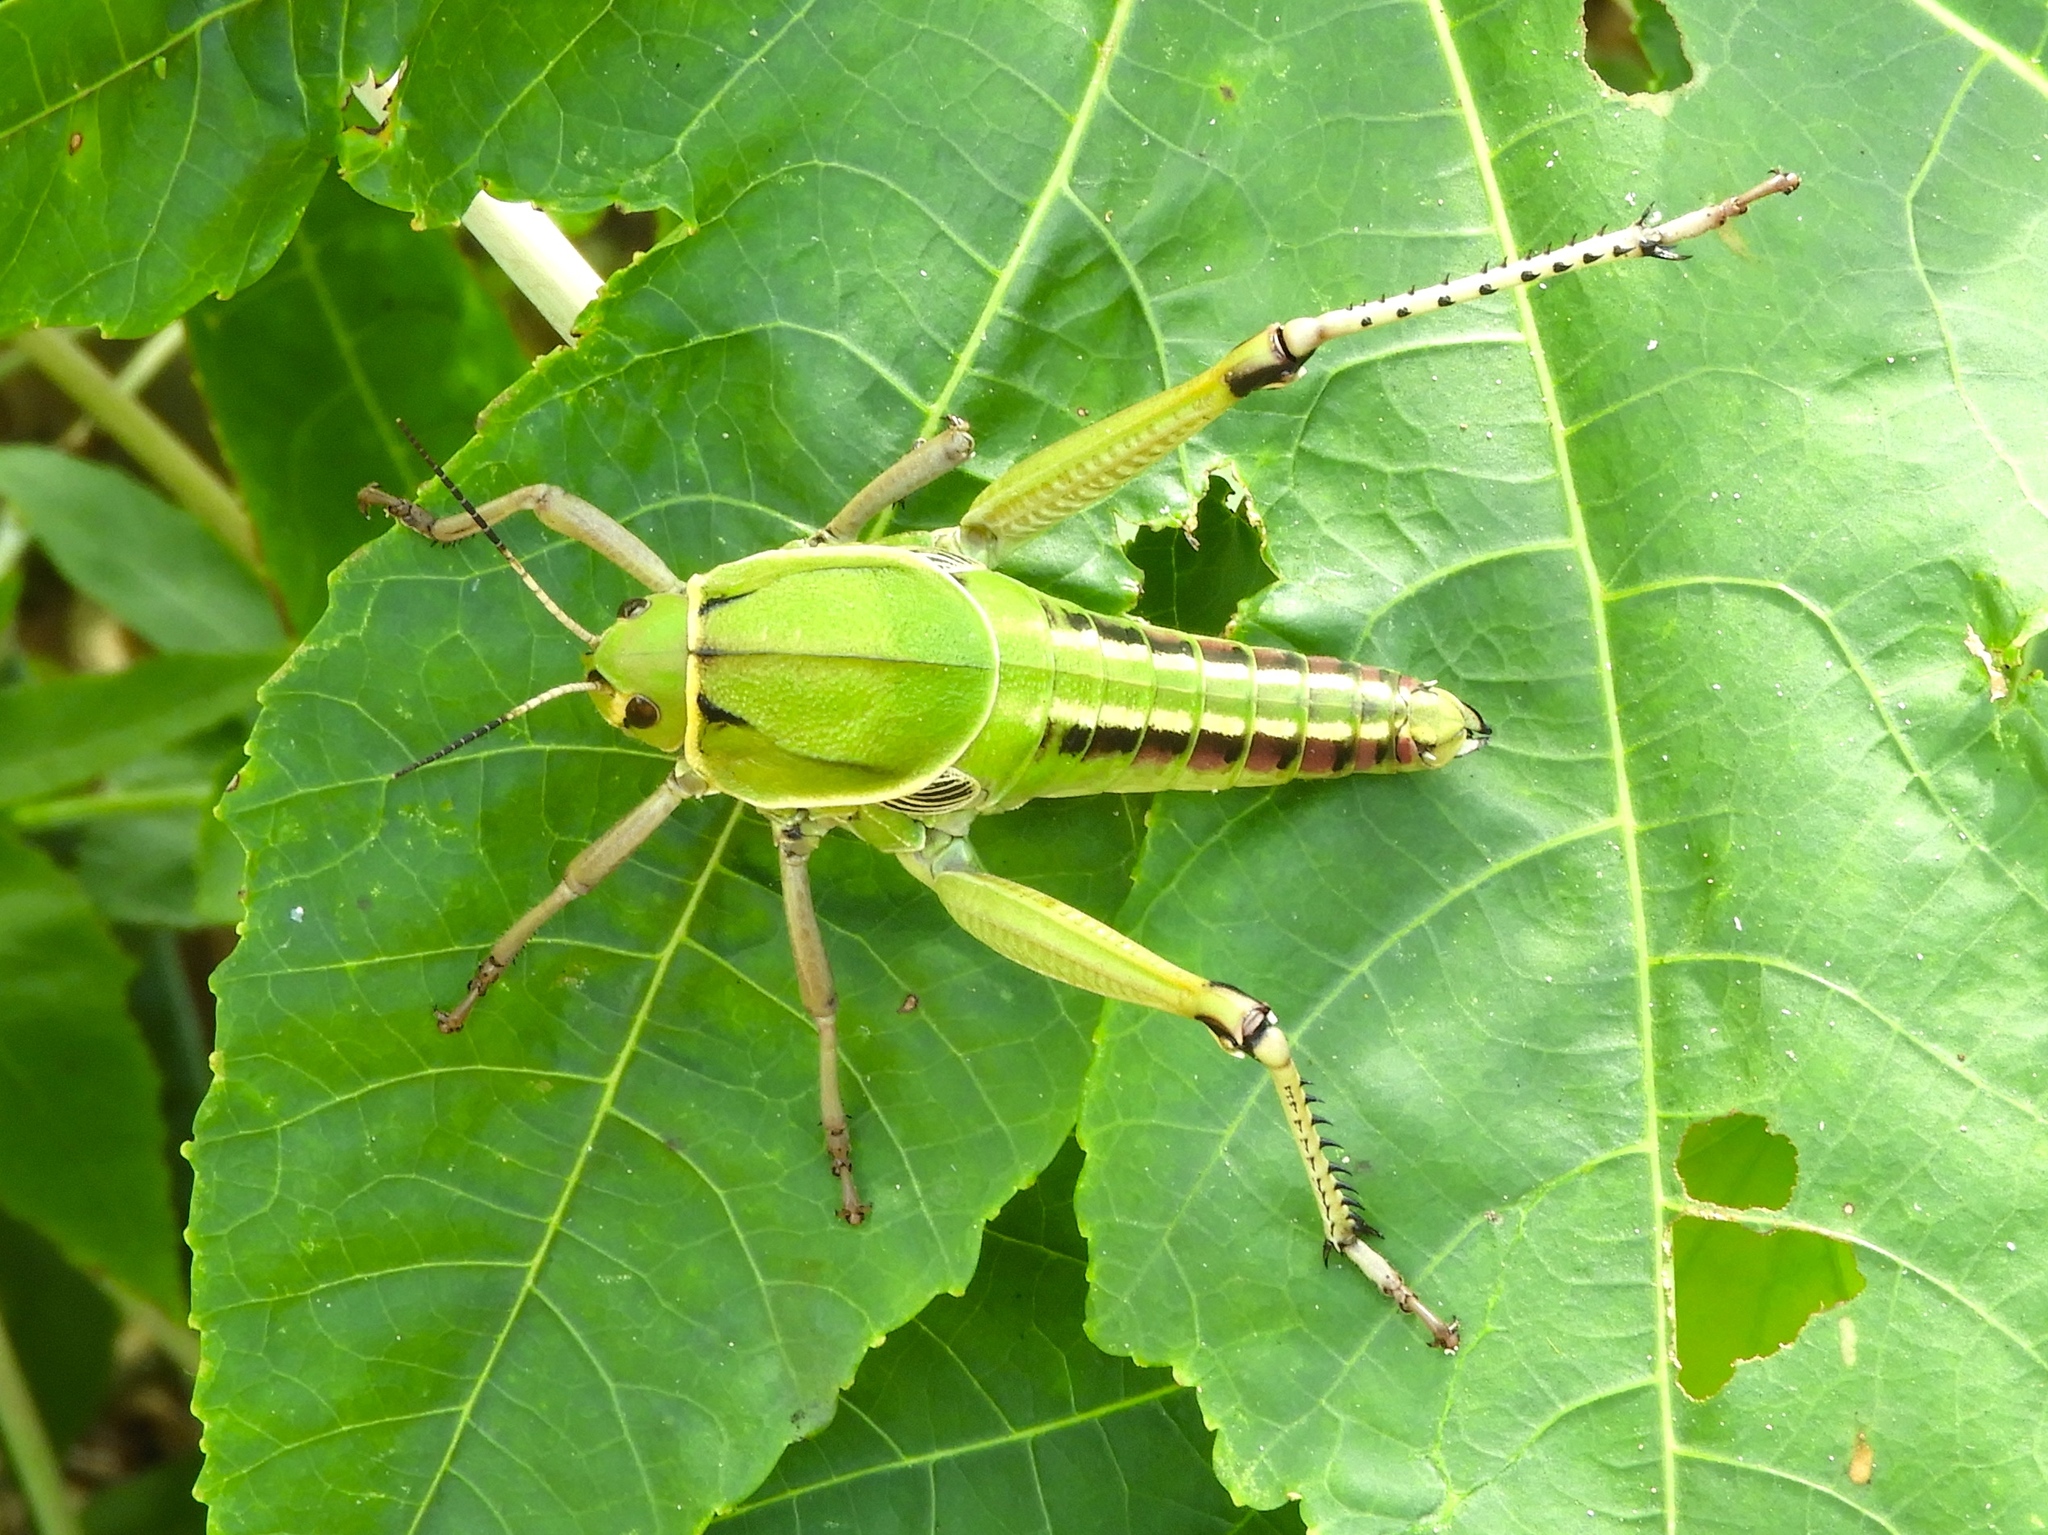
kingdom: Animalia
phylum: Arthropoda
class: Insecta
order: Orthoptera
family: Romaleidae
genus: Brachystola
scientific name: Brachystola behrensii
